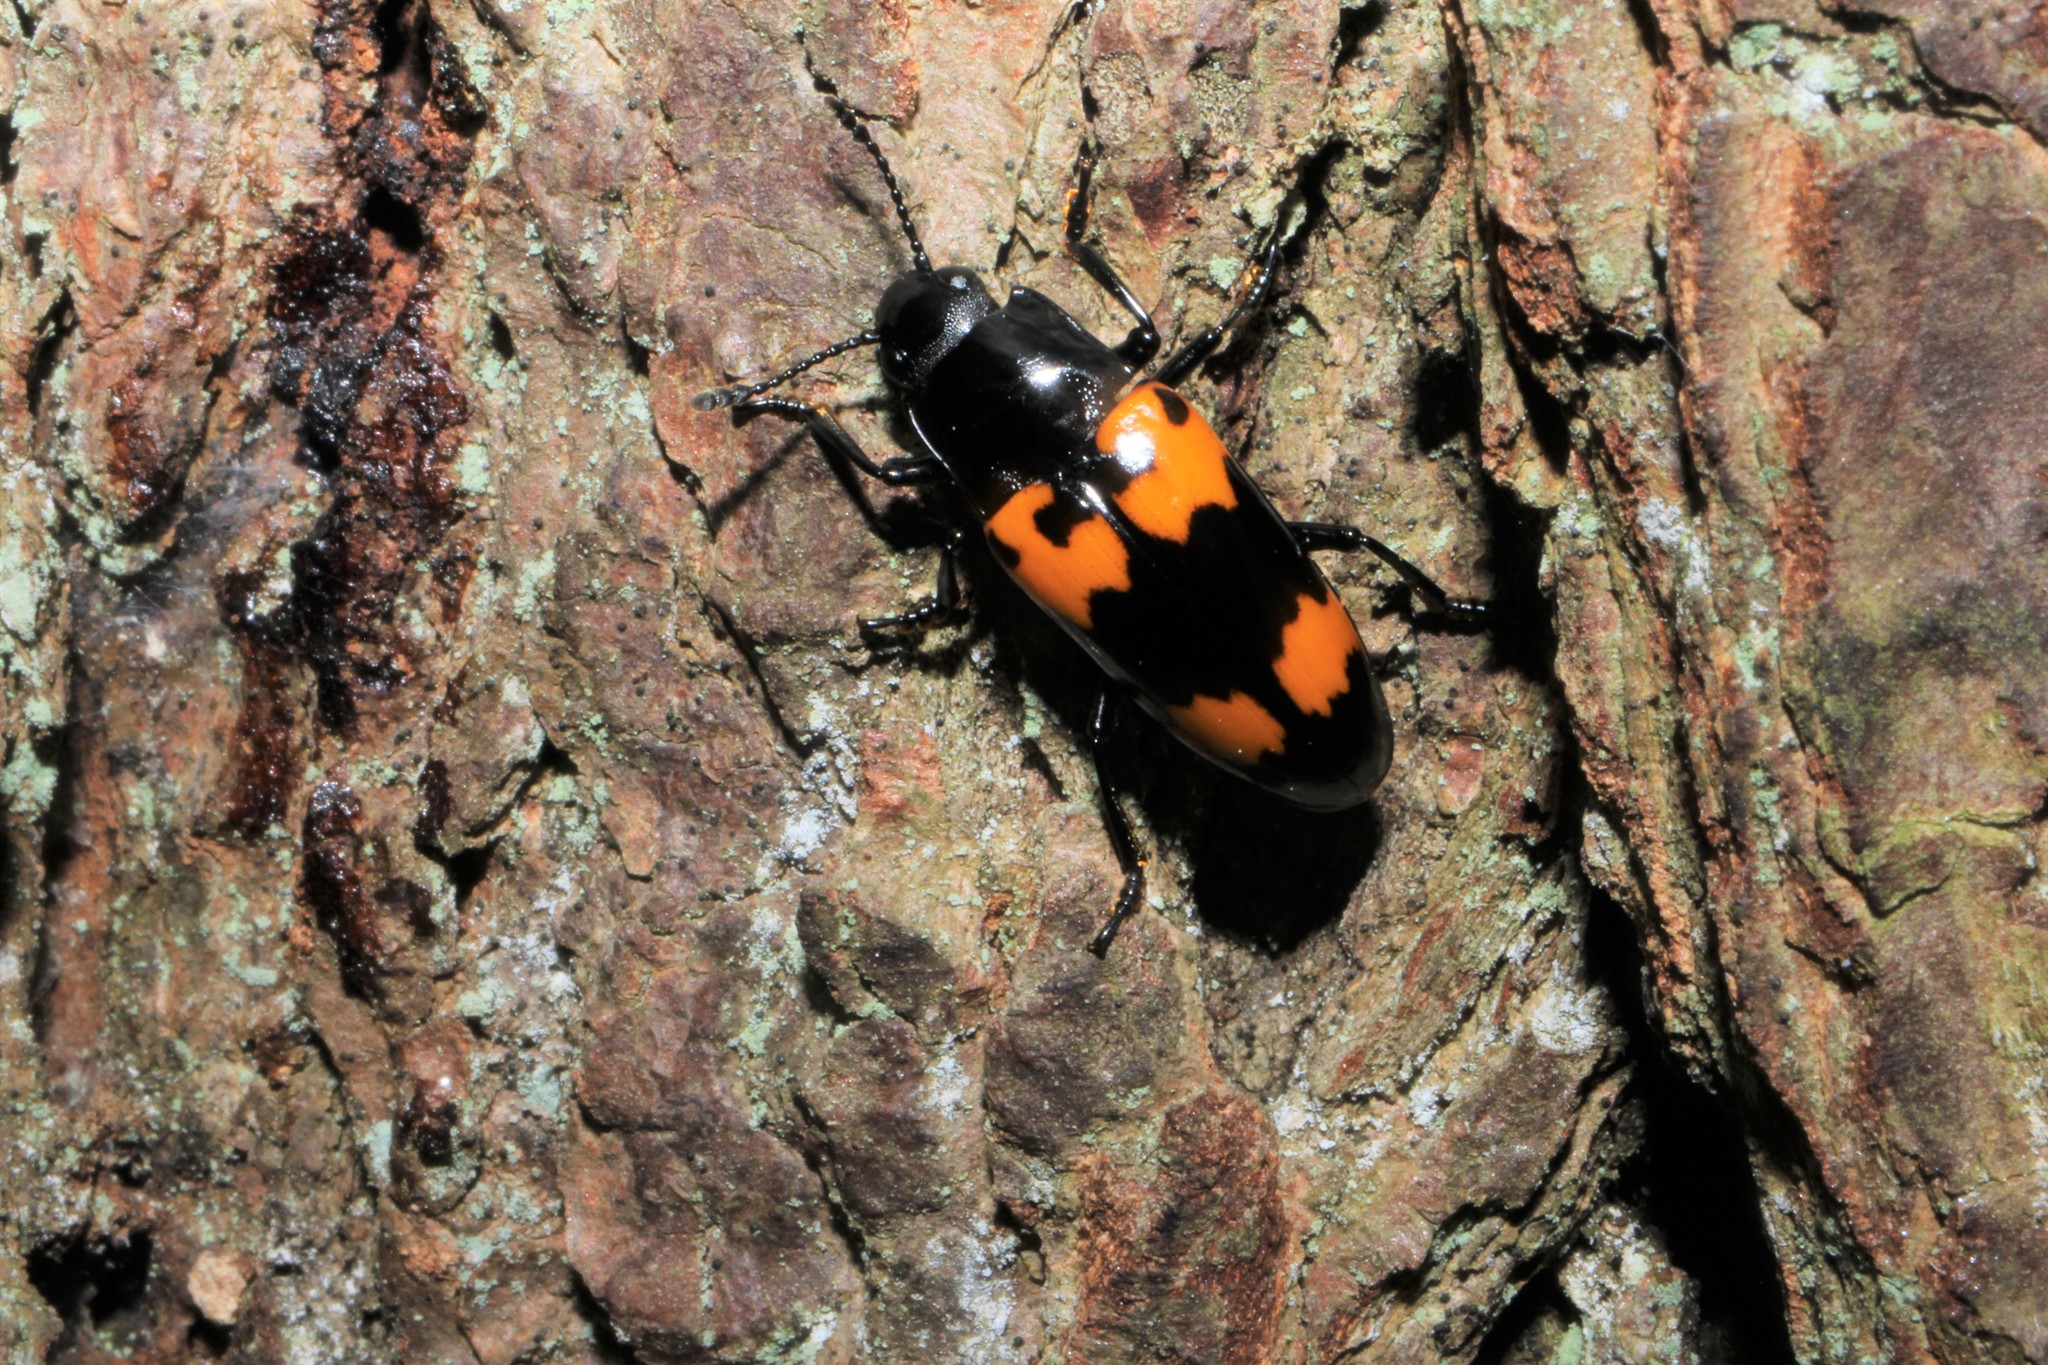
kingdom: Animalia
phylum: Arthropoda
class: Insecta
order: Coleoptera
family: Erotylidae
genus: Megalodacne
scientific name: Megalodacne heros
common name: Pleasing fungus beetle
